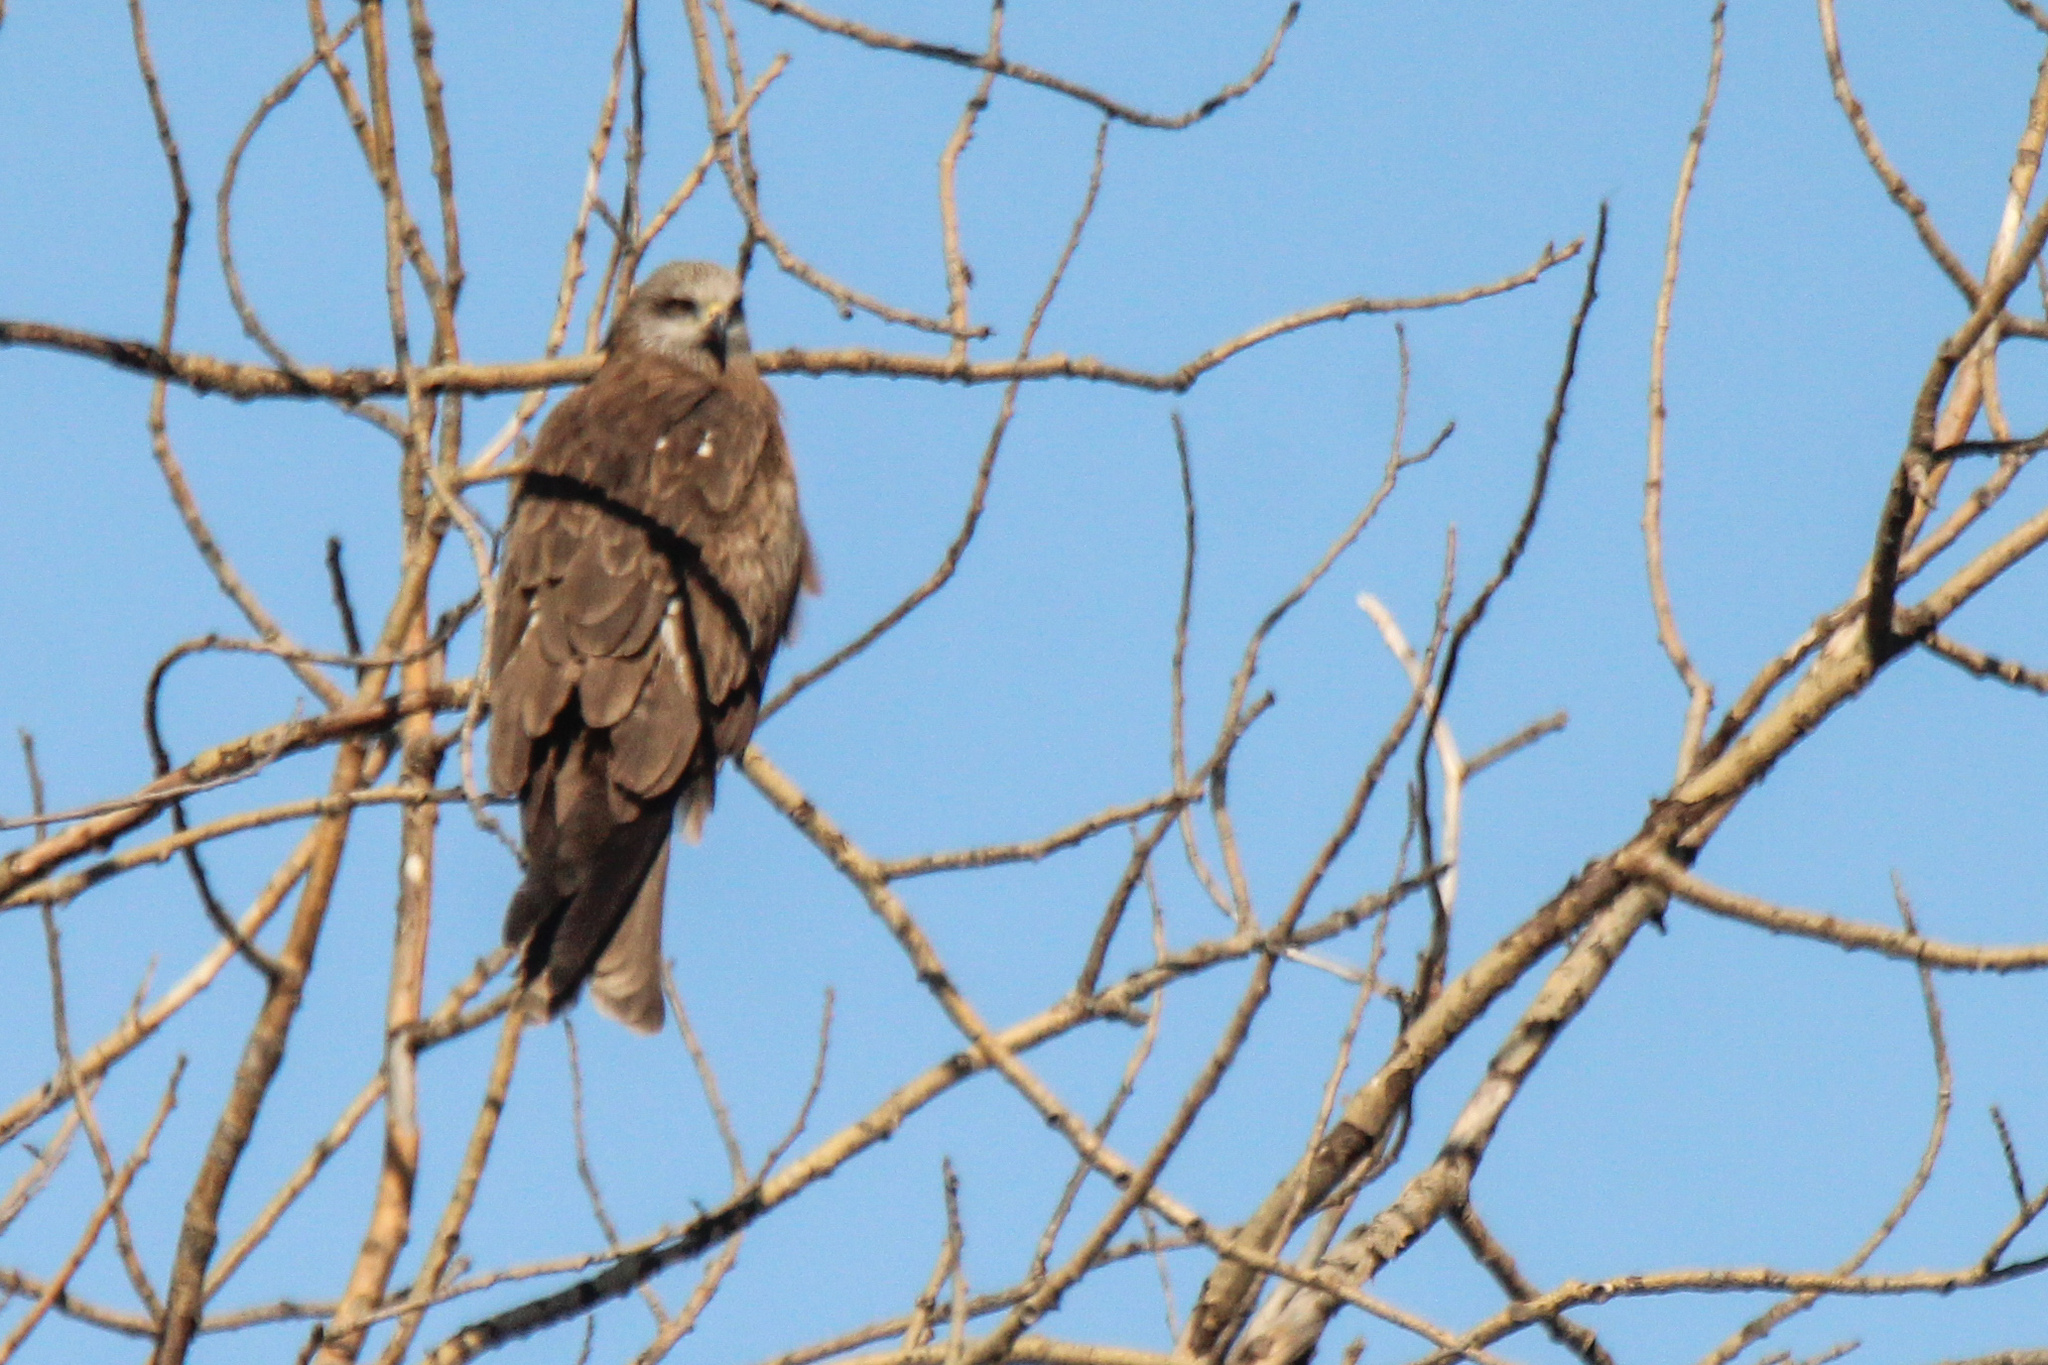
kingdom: Animalia
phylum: Chordata
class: Aves
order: Accipitriformes
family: Accipitridae
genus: Milvus
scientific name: Milvus migrans
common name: Black kite
